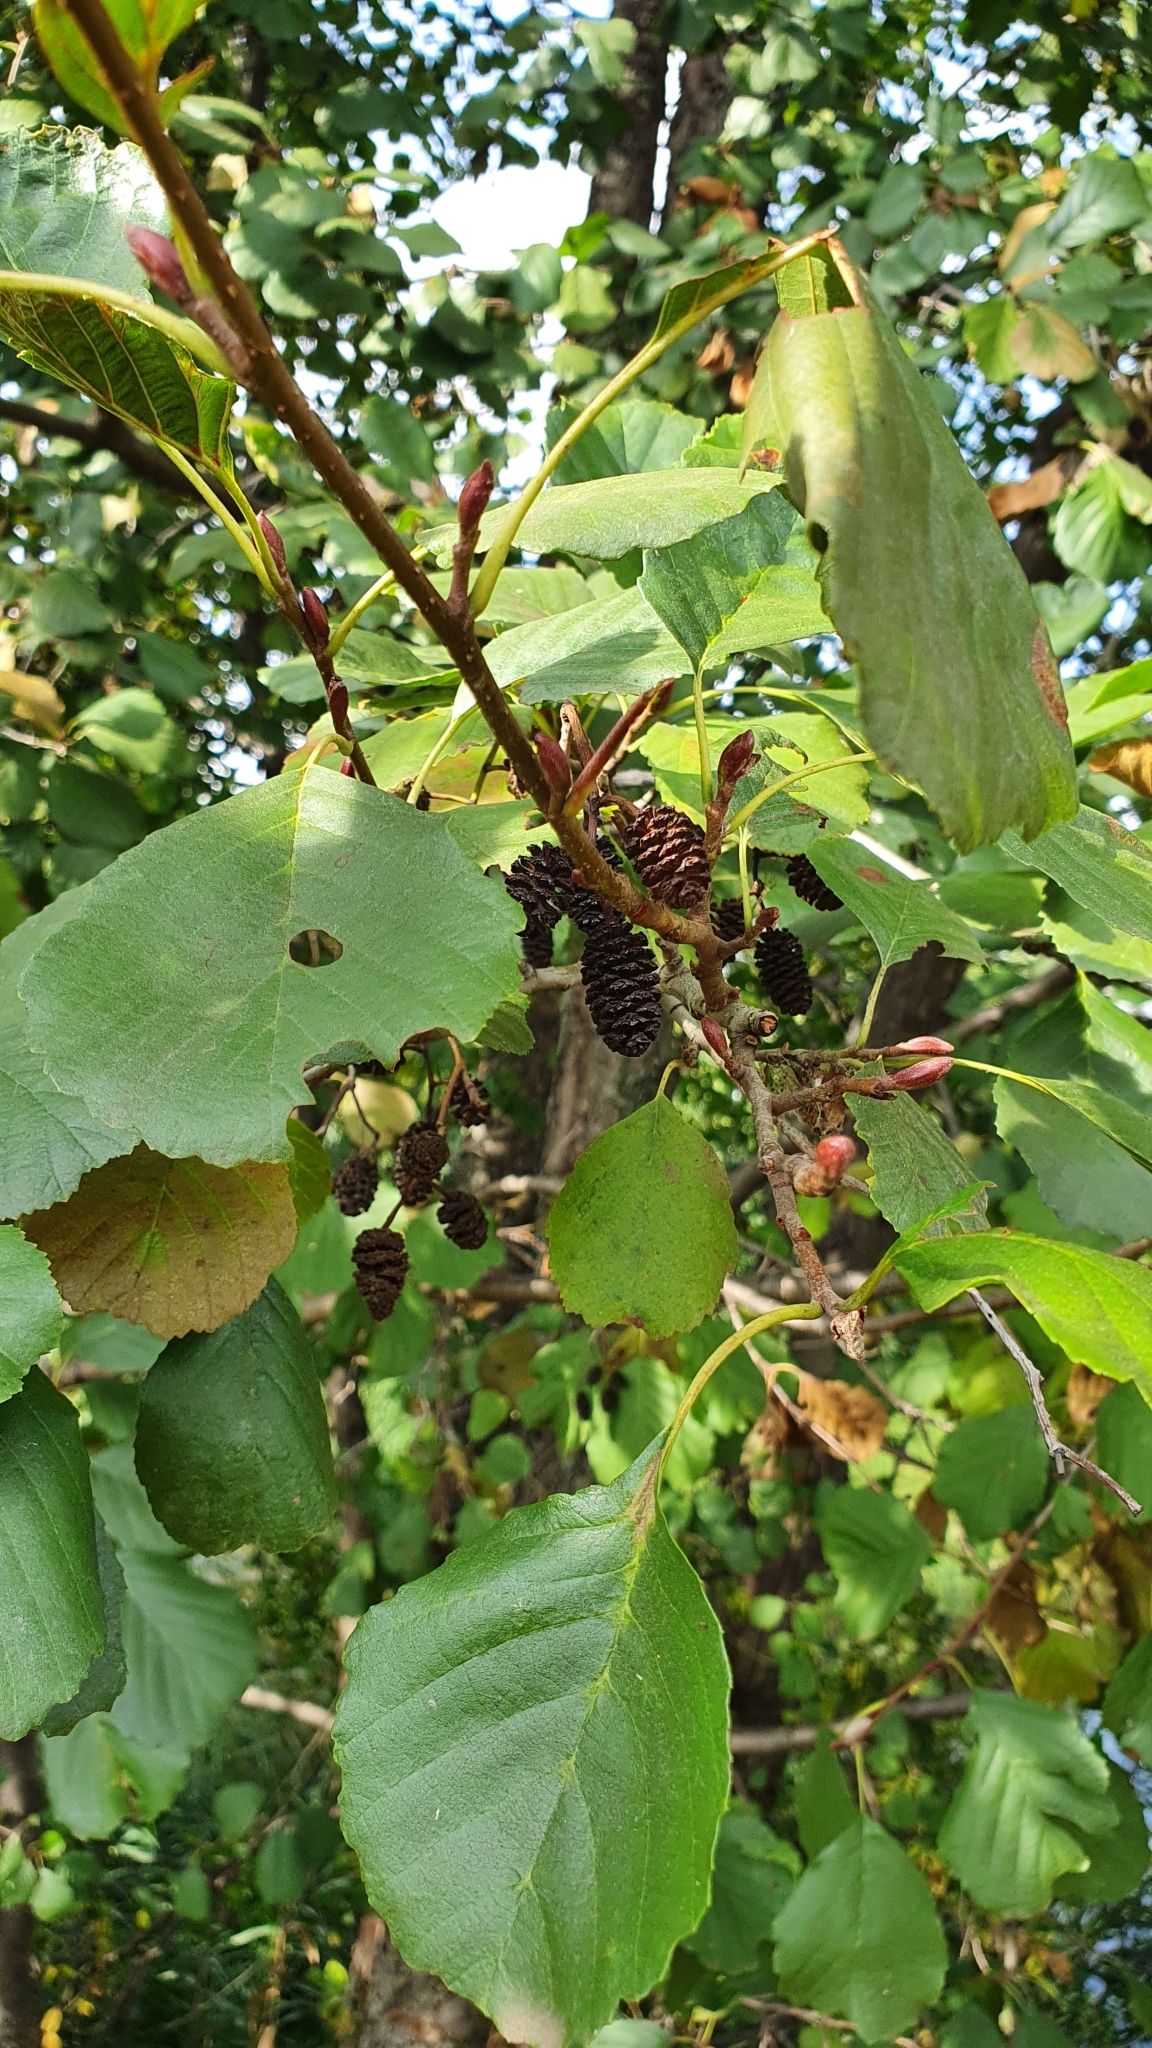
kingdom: Plantae
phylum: Tracheophyta
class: Magnoliopsida
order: Fagales
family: Betulaceae
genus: Alnus
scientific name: Alnus glutinosa
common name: Black alder
